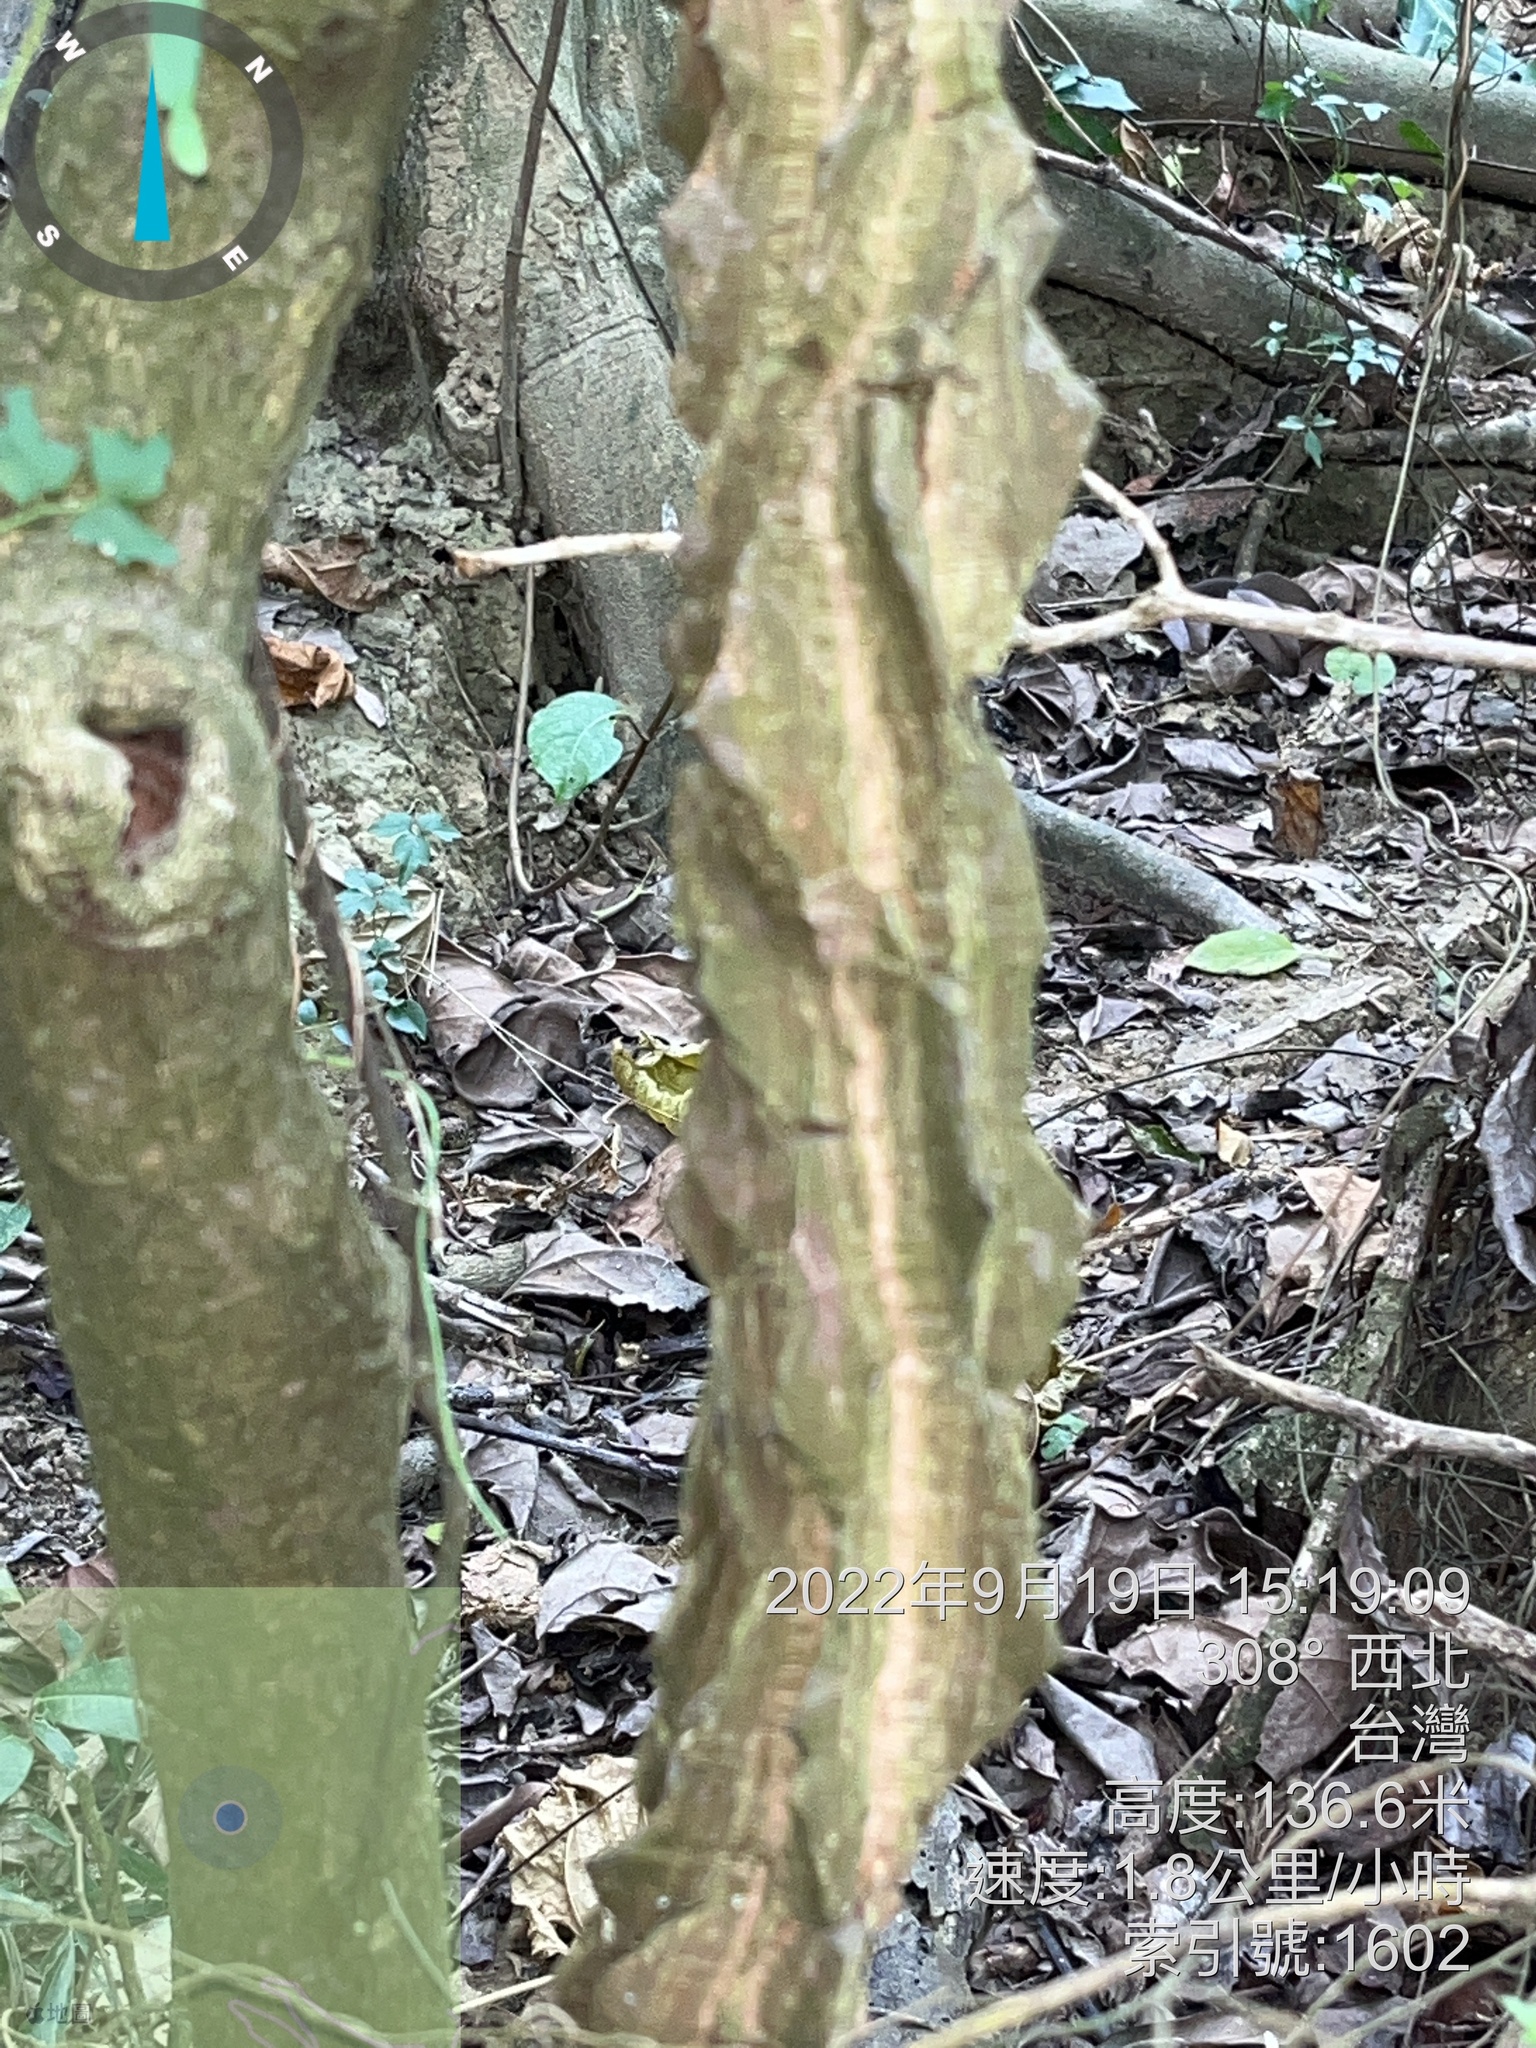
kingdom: Plantae
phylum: Tracheophyta
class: Magnoliopsida
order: Sapindales
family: Rutaceae
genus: Zanthoxylum
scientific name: Zanthoxylum nitidum
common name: Shiny-leaf prickly-ash
